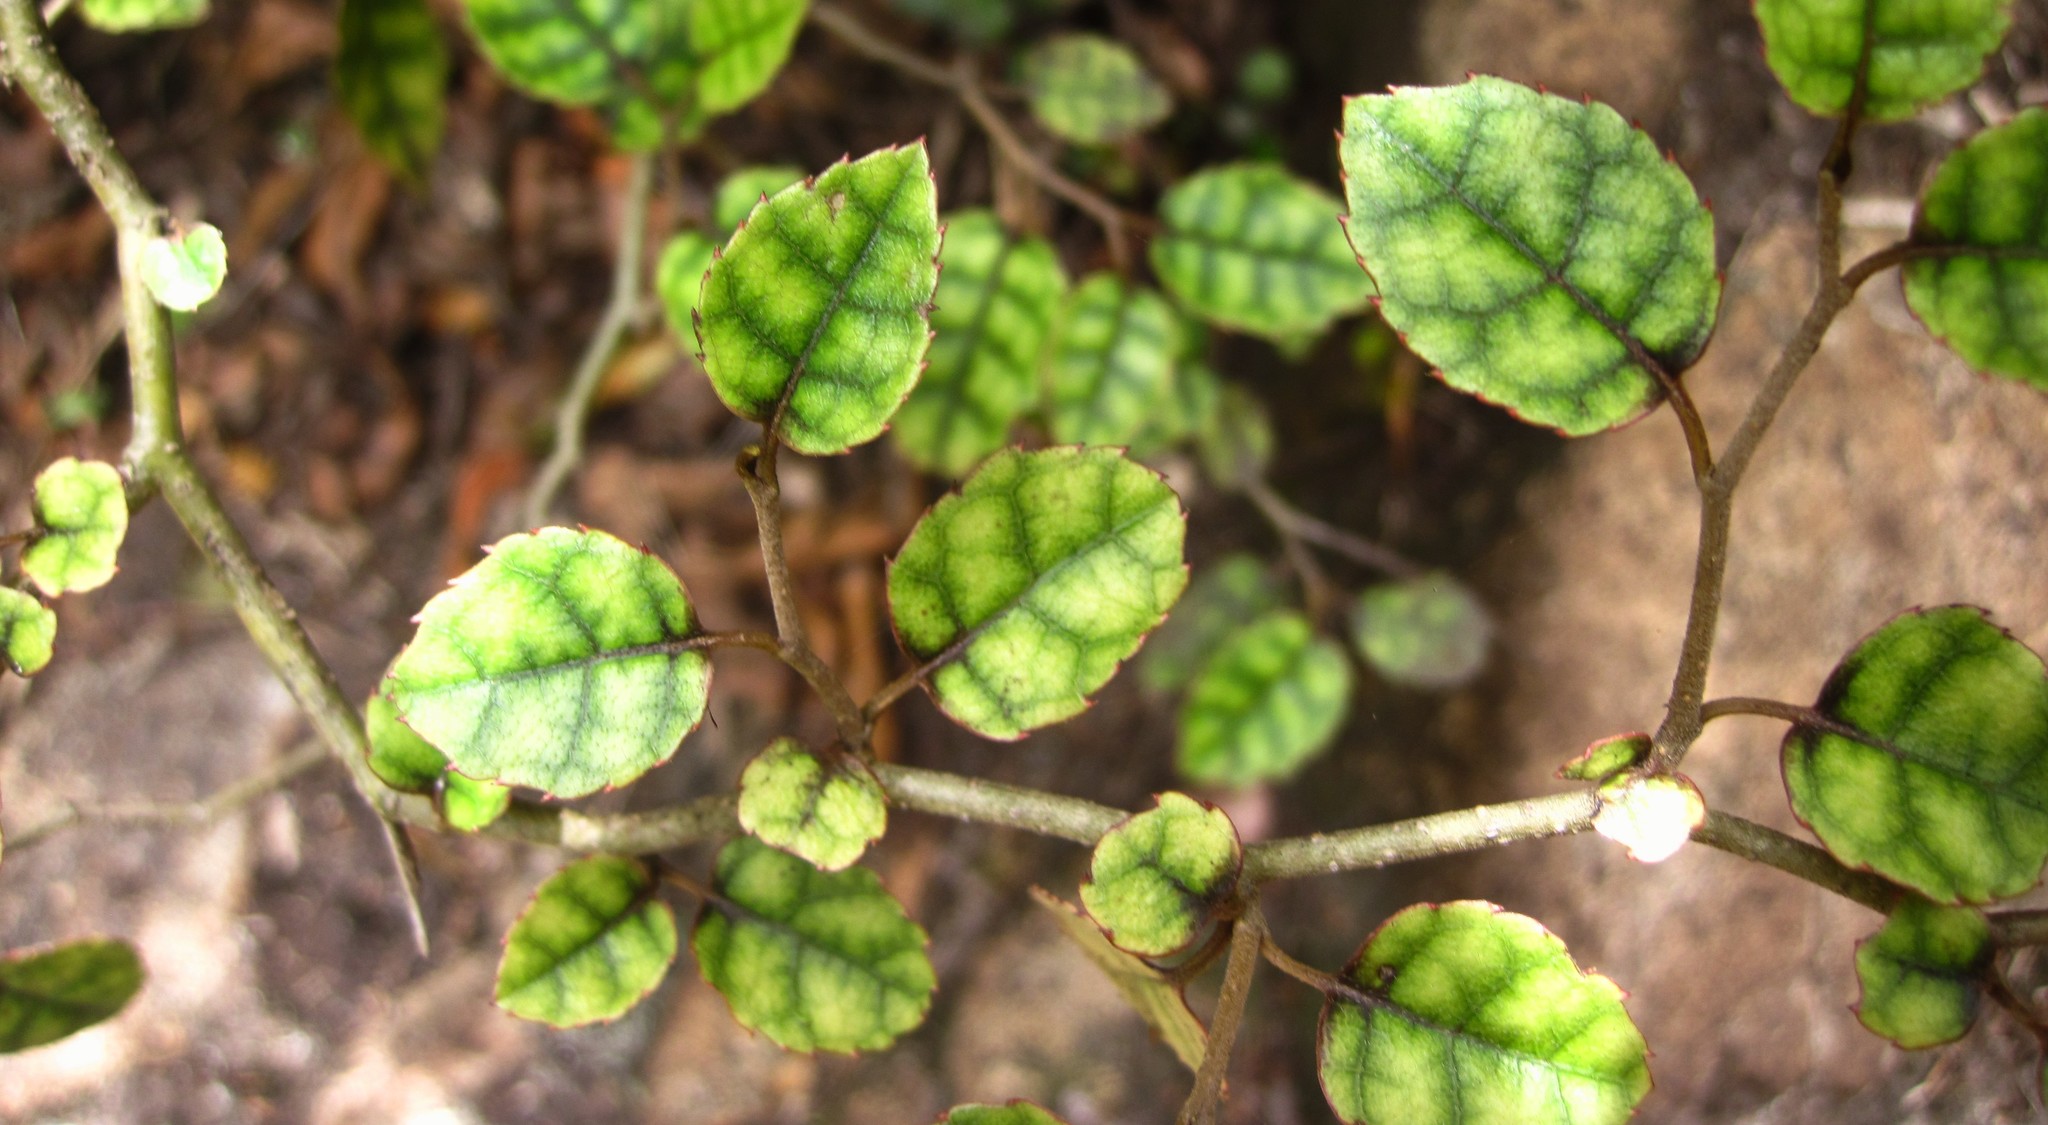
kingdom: Plantae
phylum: Tracheophyta
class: Magnoliopsida
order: Asterales
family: Rousseaceae
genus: Carpodetus
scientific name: Carpodetus serratus
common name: White mapau
